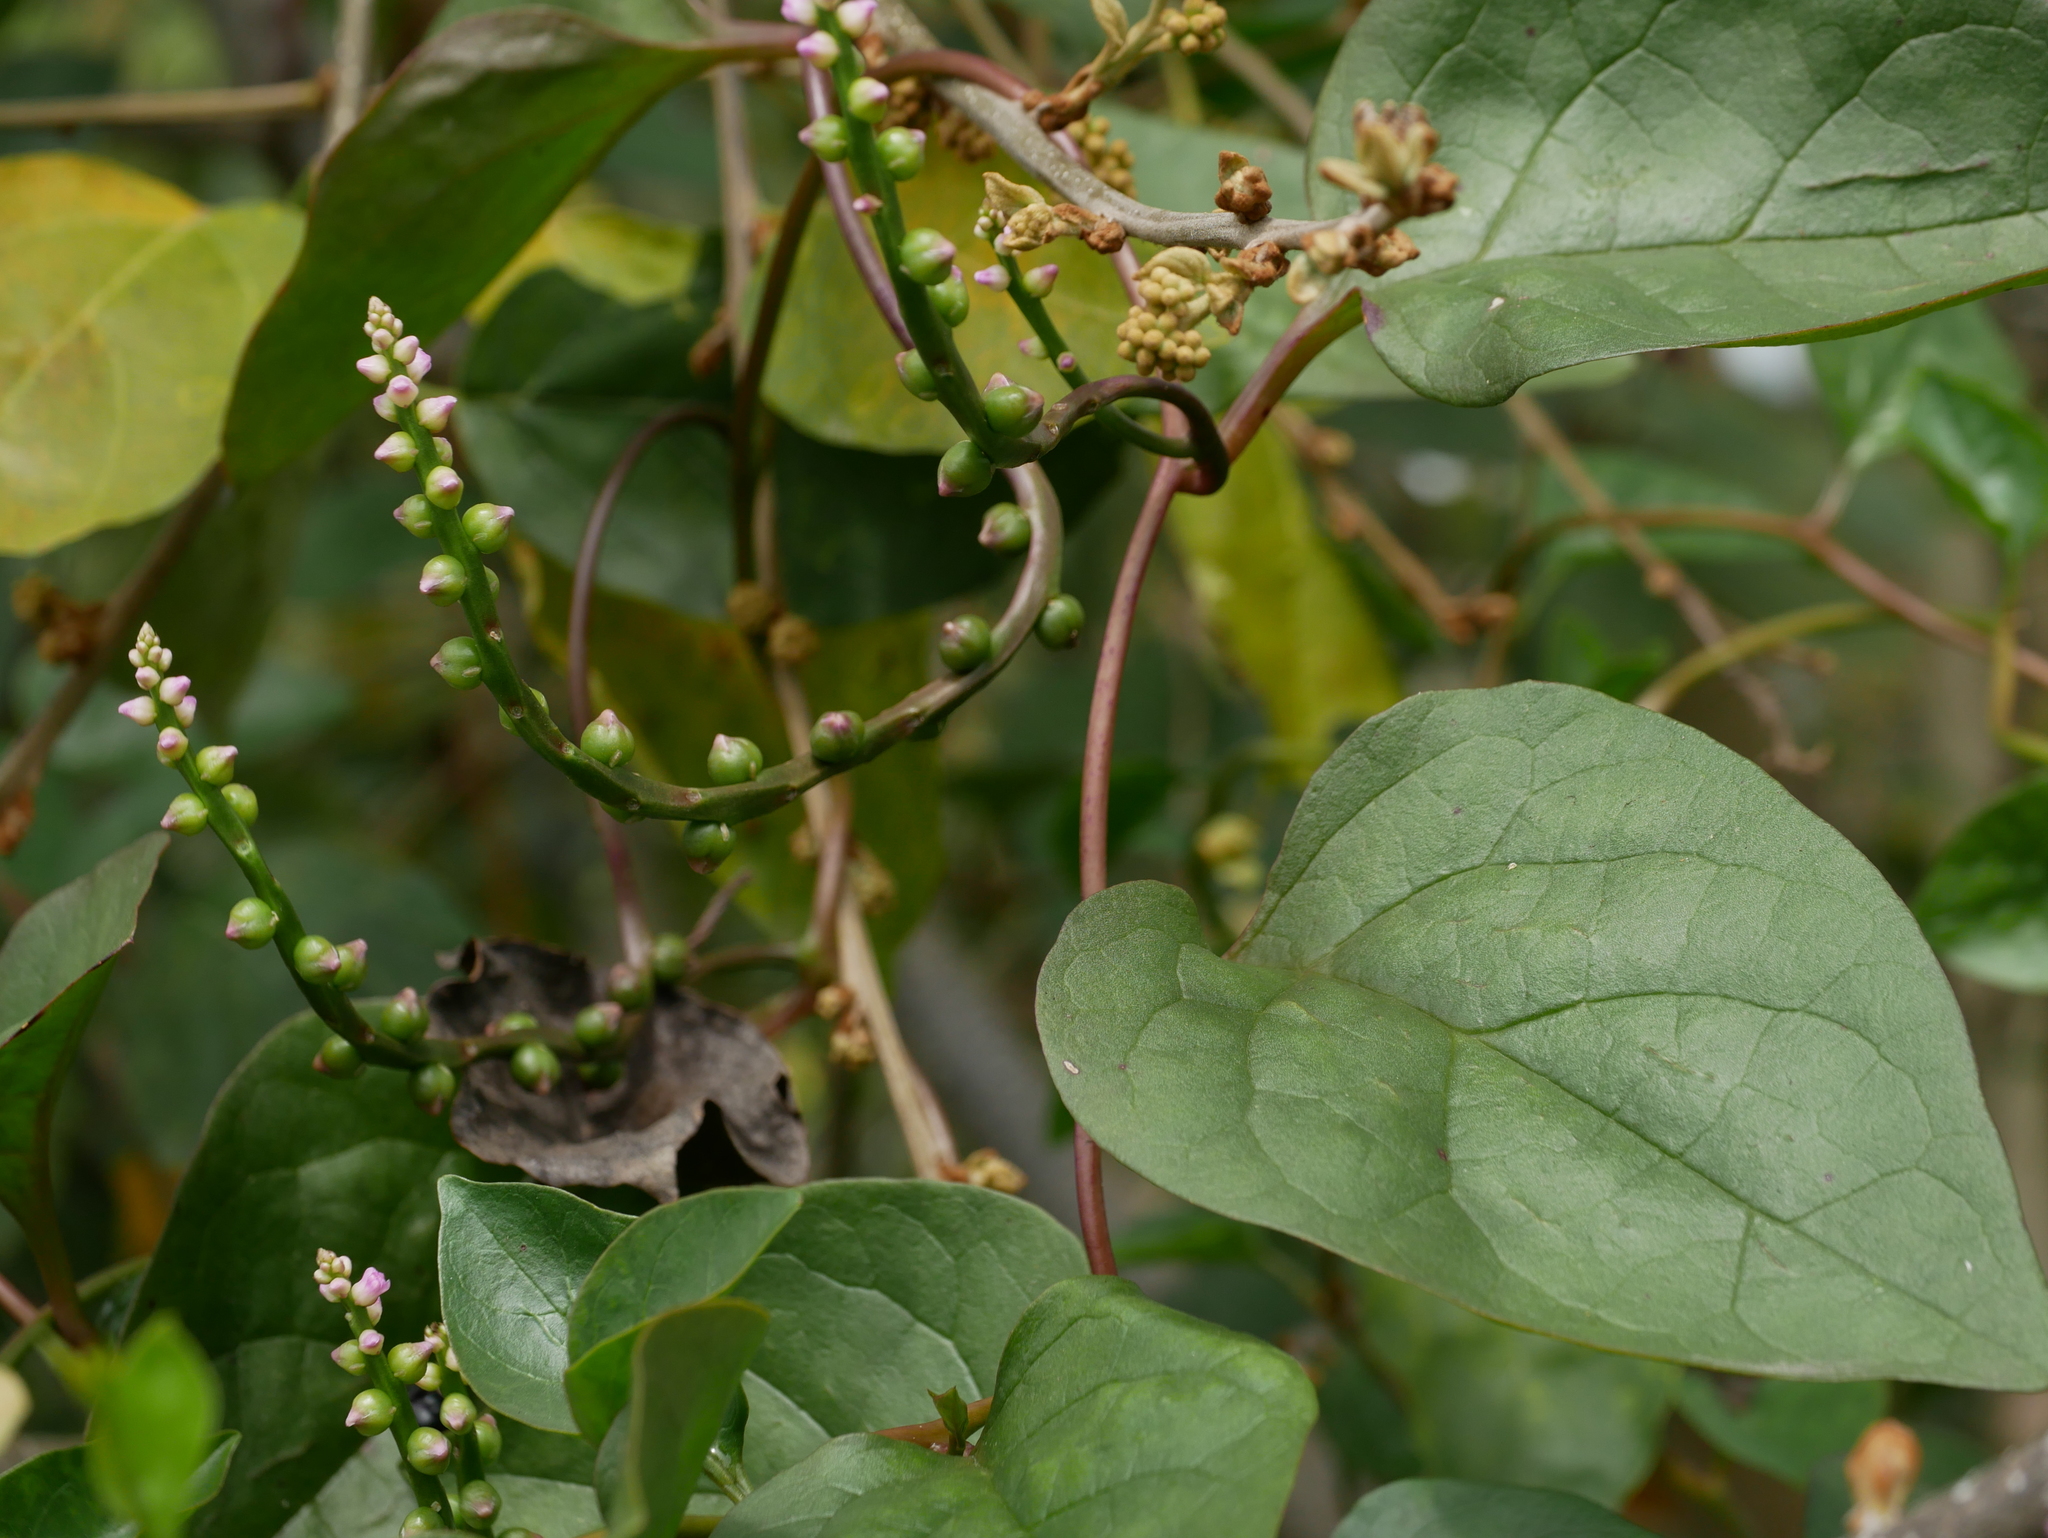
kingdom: Plantae
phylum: Tracheophyta
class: Magnoliopsida
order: Caryophyllales
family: Basellaceae
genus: Basella
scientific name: Basella alba
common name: Indian spinach
